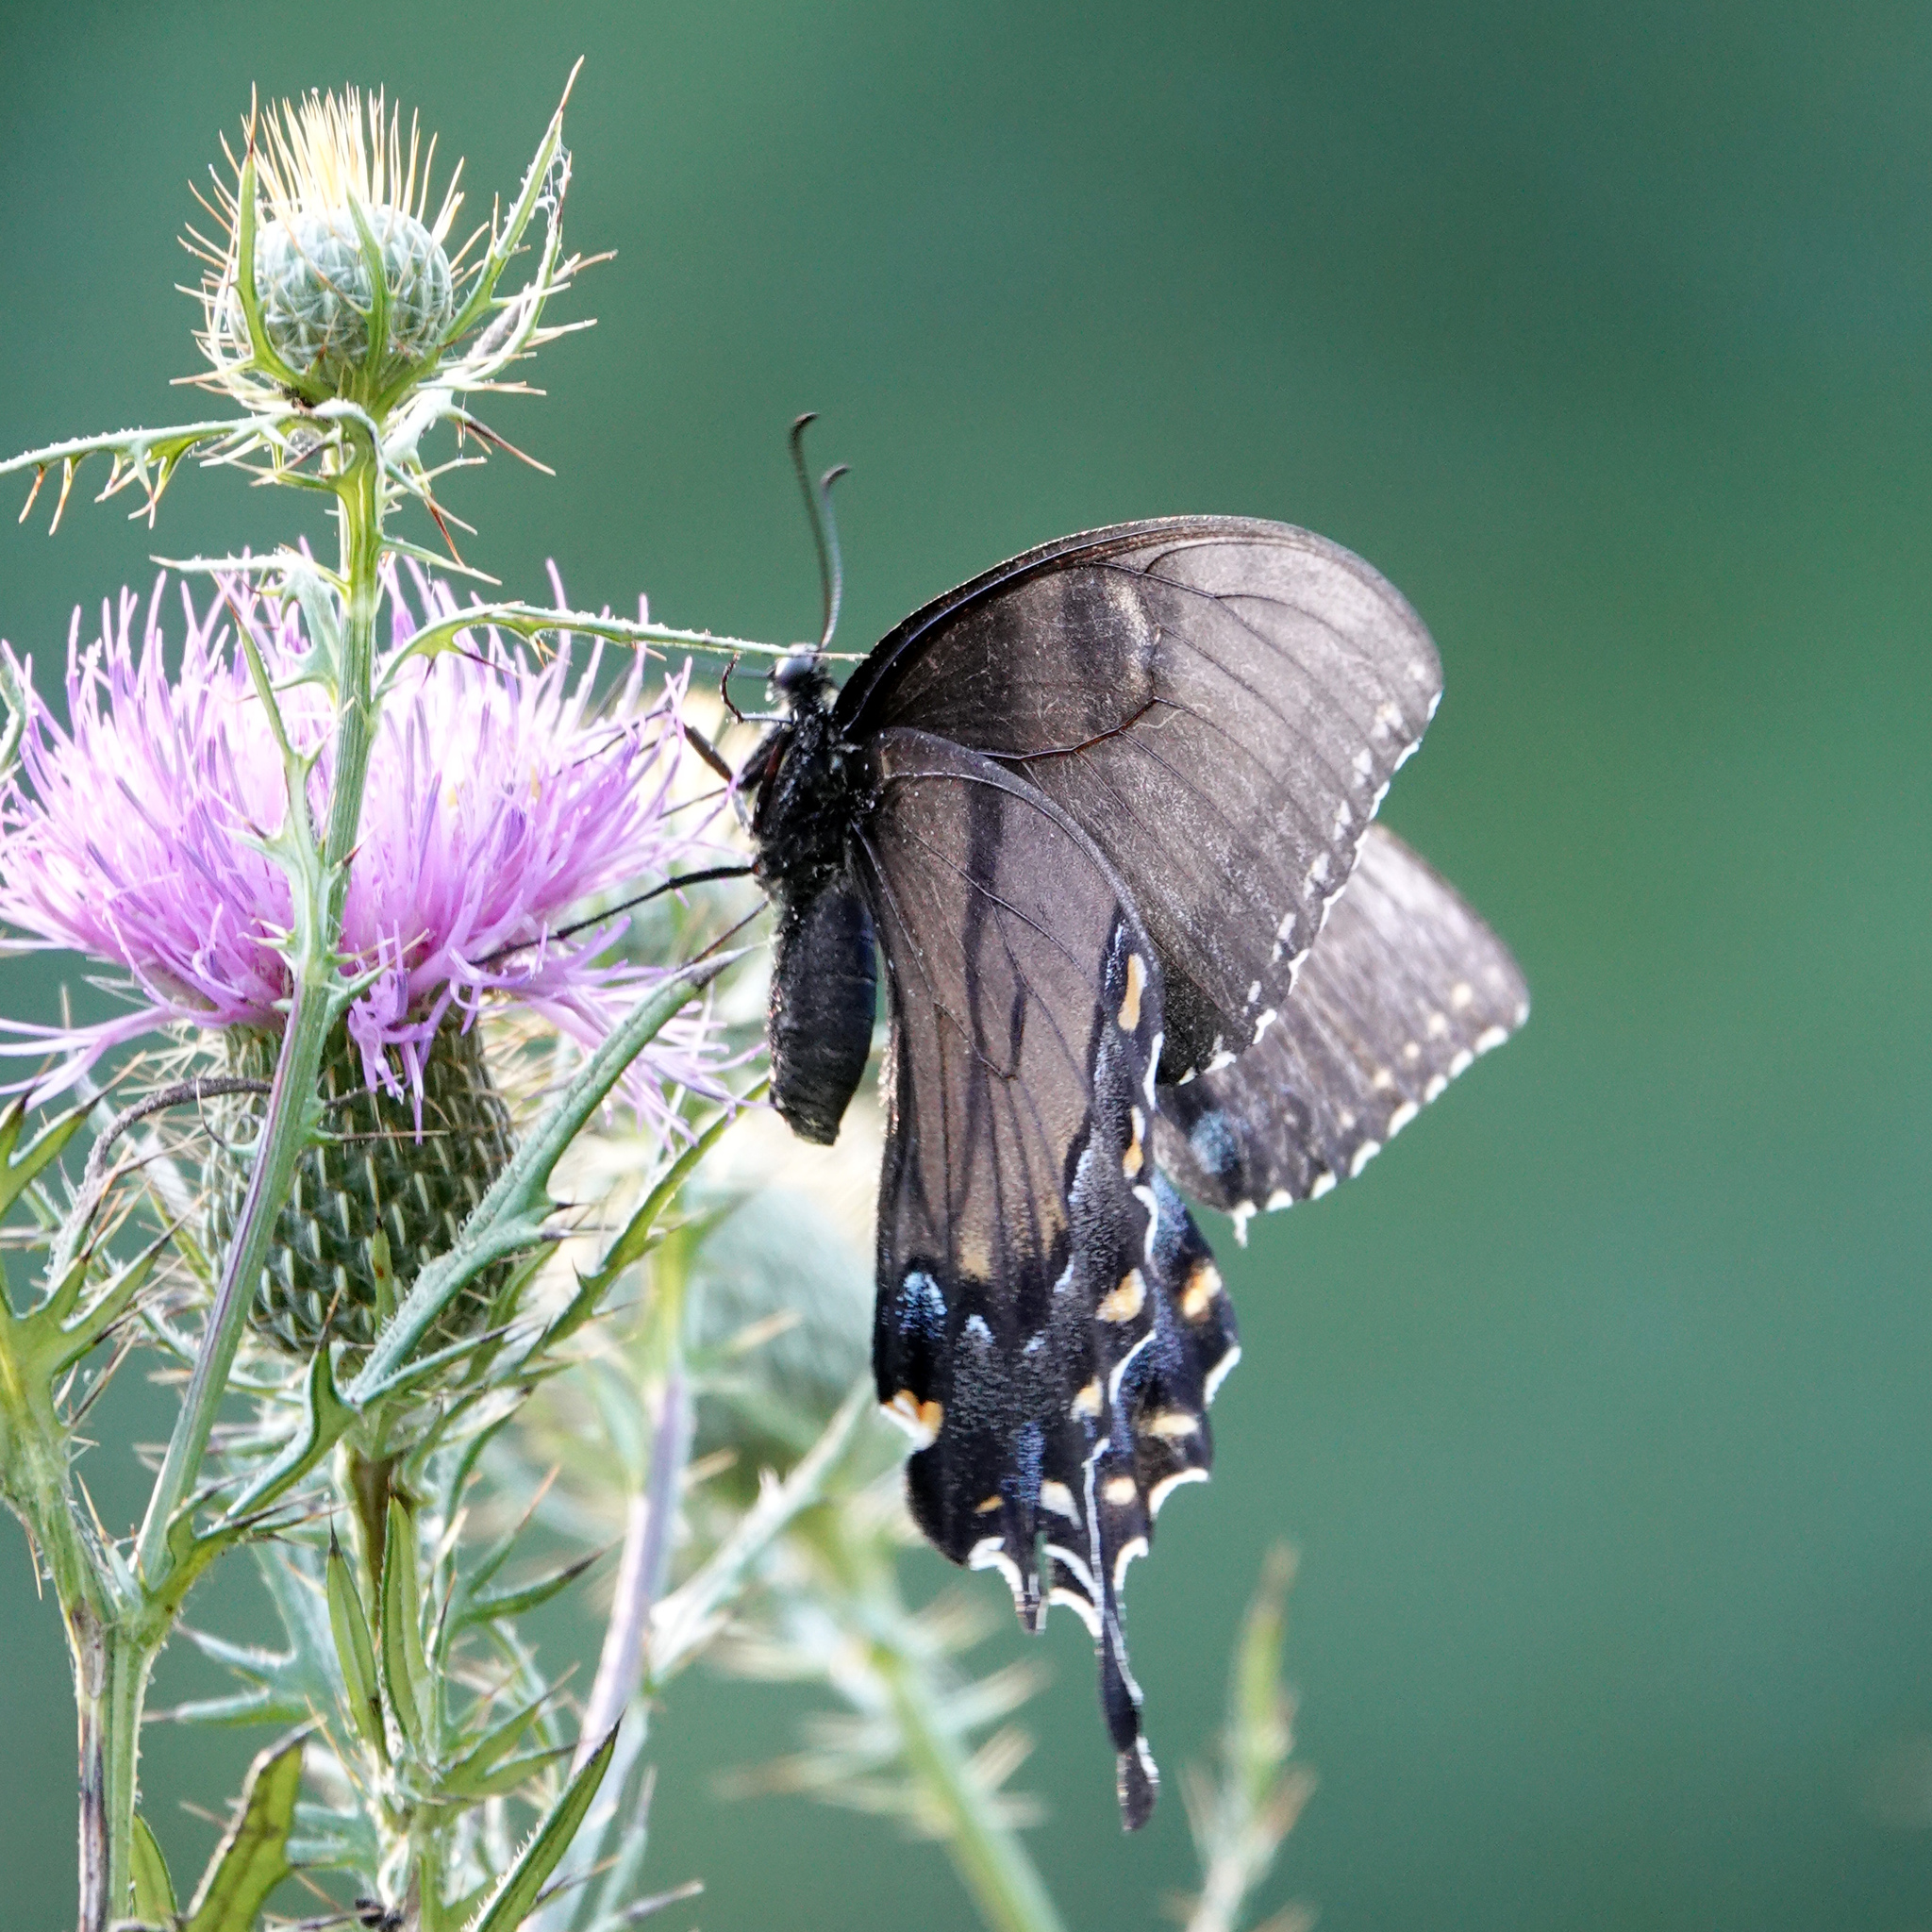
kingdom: Animalia
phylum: Arthropoda
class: Insecta
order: Lepidoptera
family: Papilionidae
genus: Papilio
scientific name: Papilio glaucus
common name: Tiger swallowtail
